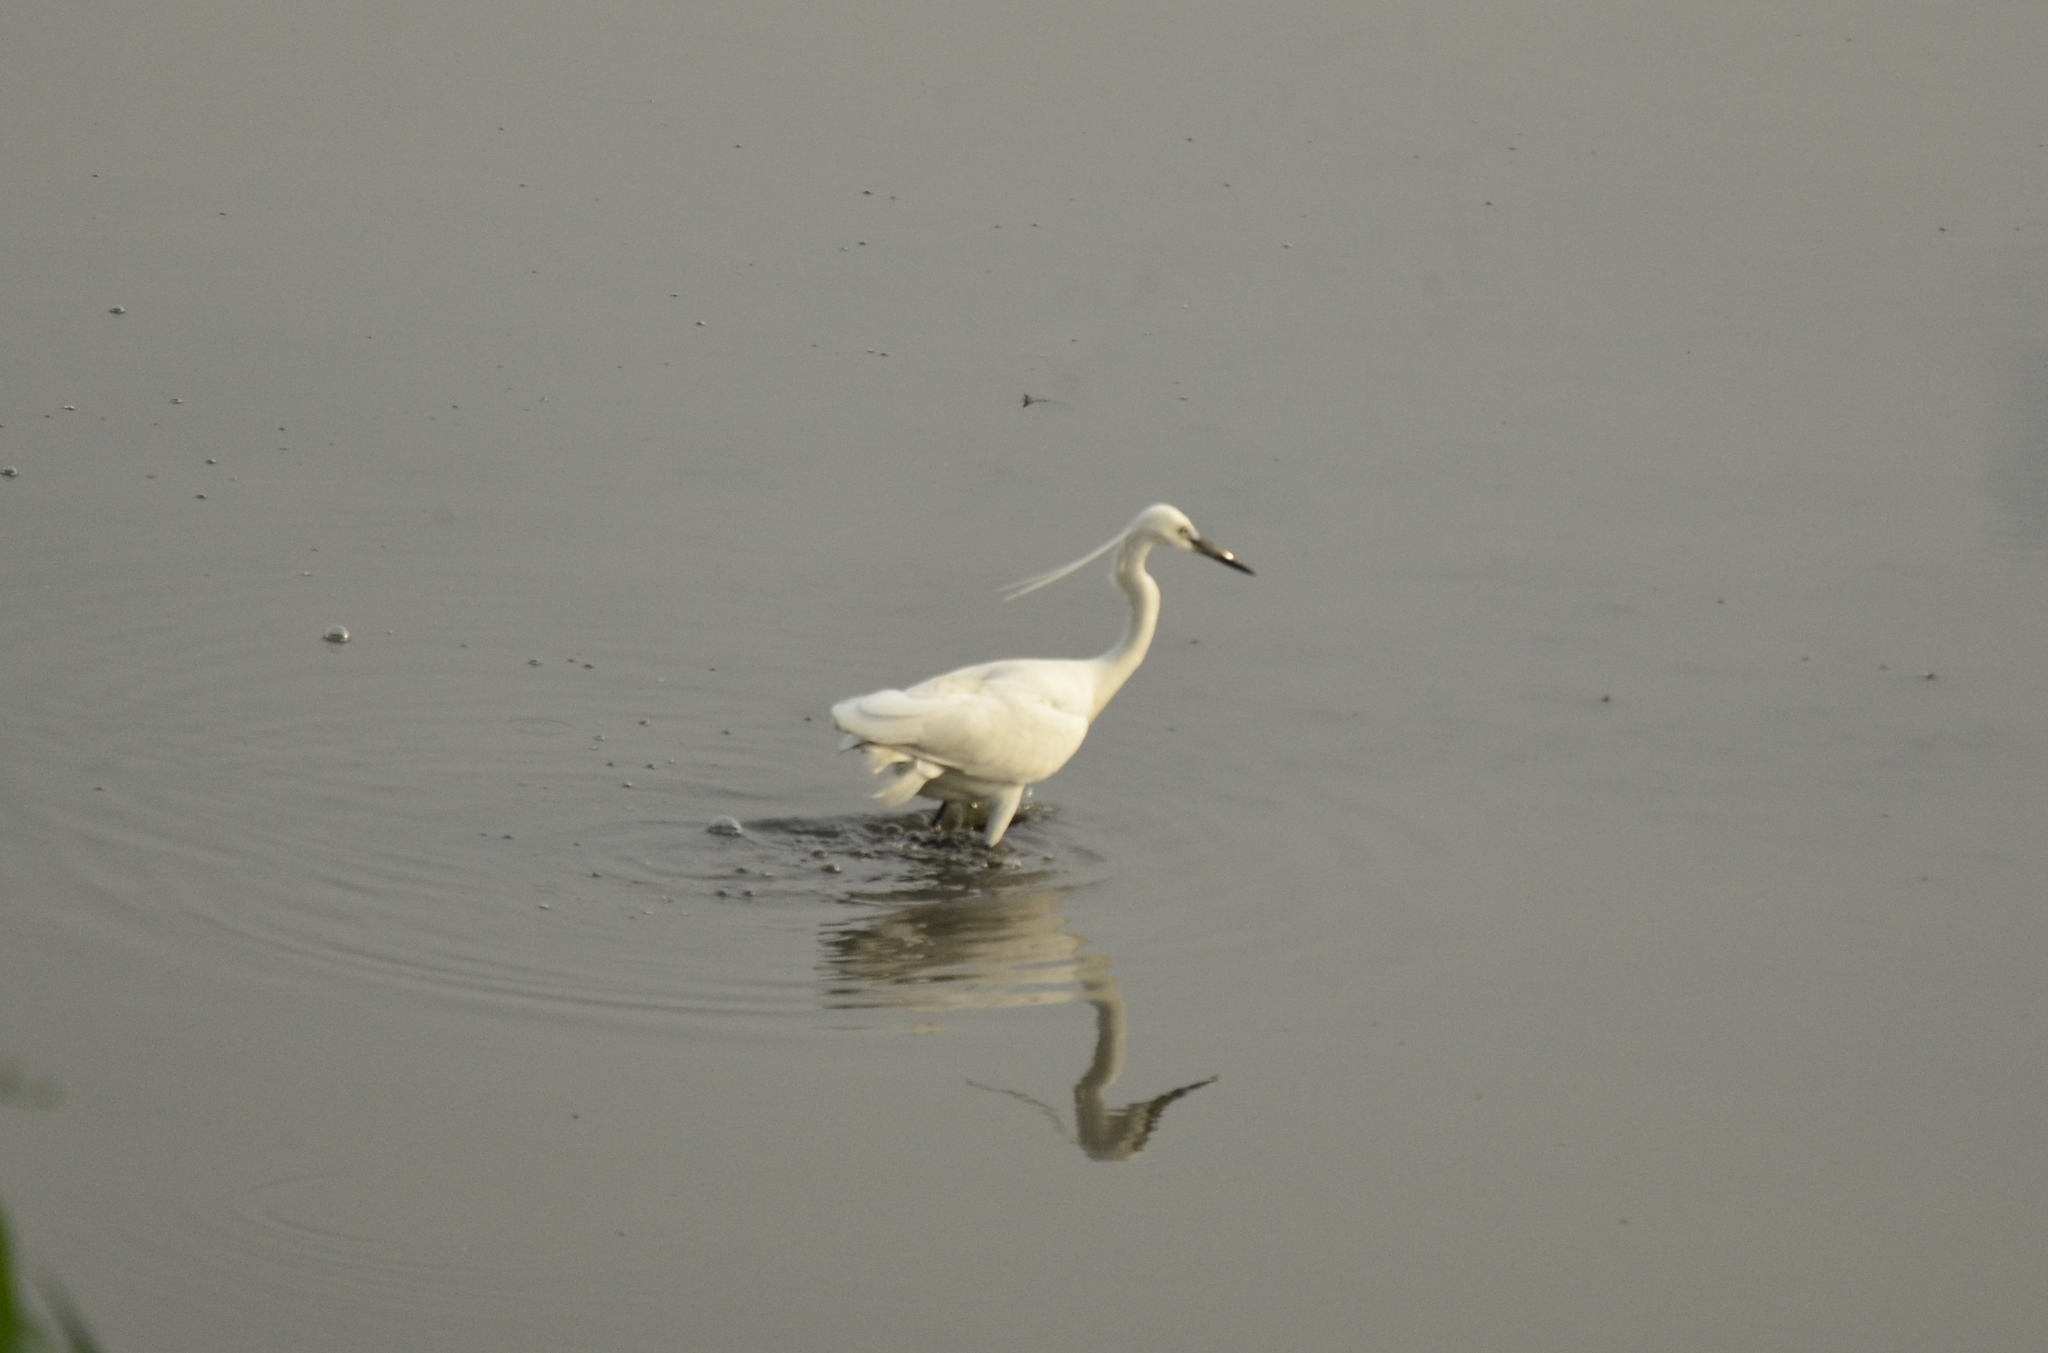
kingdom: Animalia
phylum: Chordata
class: Aves
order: Pelecaniformes
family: Ardeidae
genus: Egretta
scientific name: Egretta garzetta
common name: Little egret
